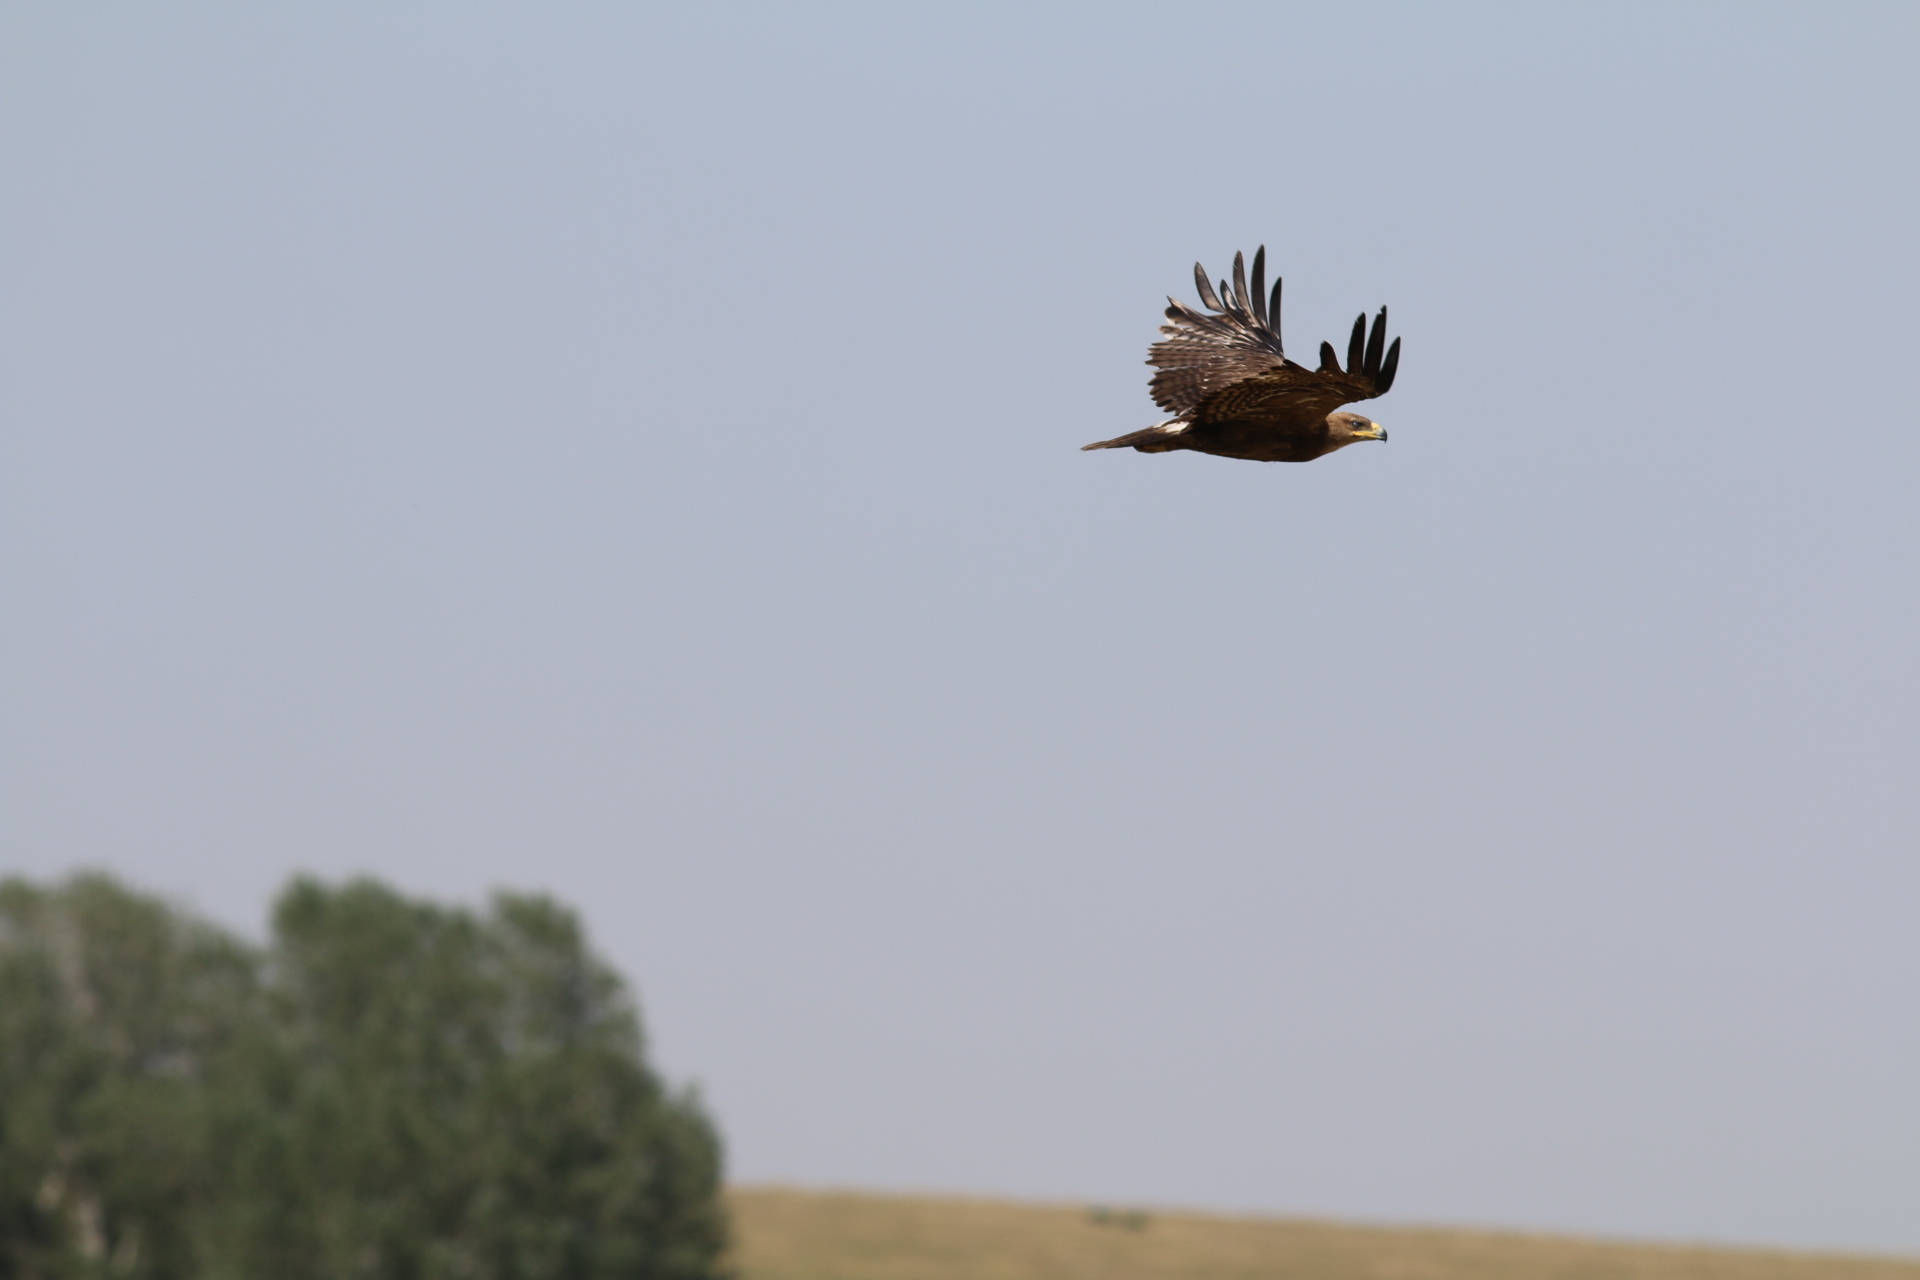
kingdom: Animalia
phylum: Chordata
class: Aves
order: Accipitriformes
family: Accipitridae
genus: Aquila
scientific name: Aquila heliaca
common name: Eastern imperial eagle
